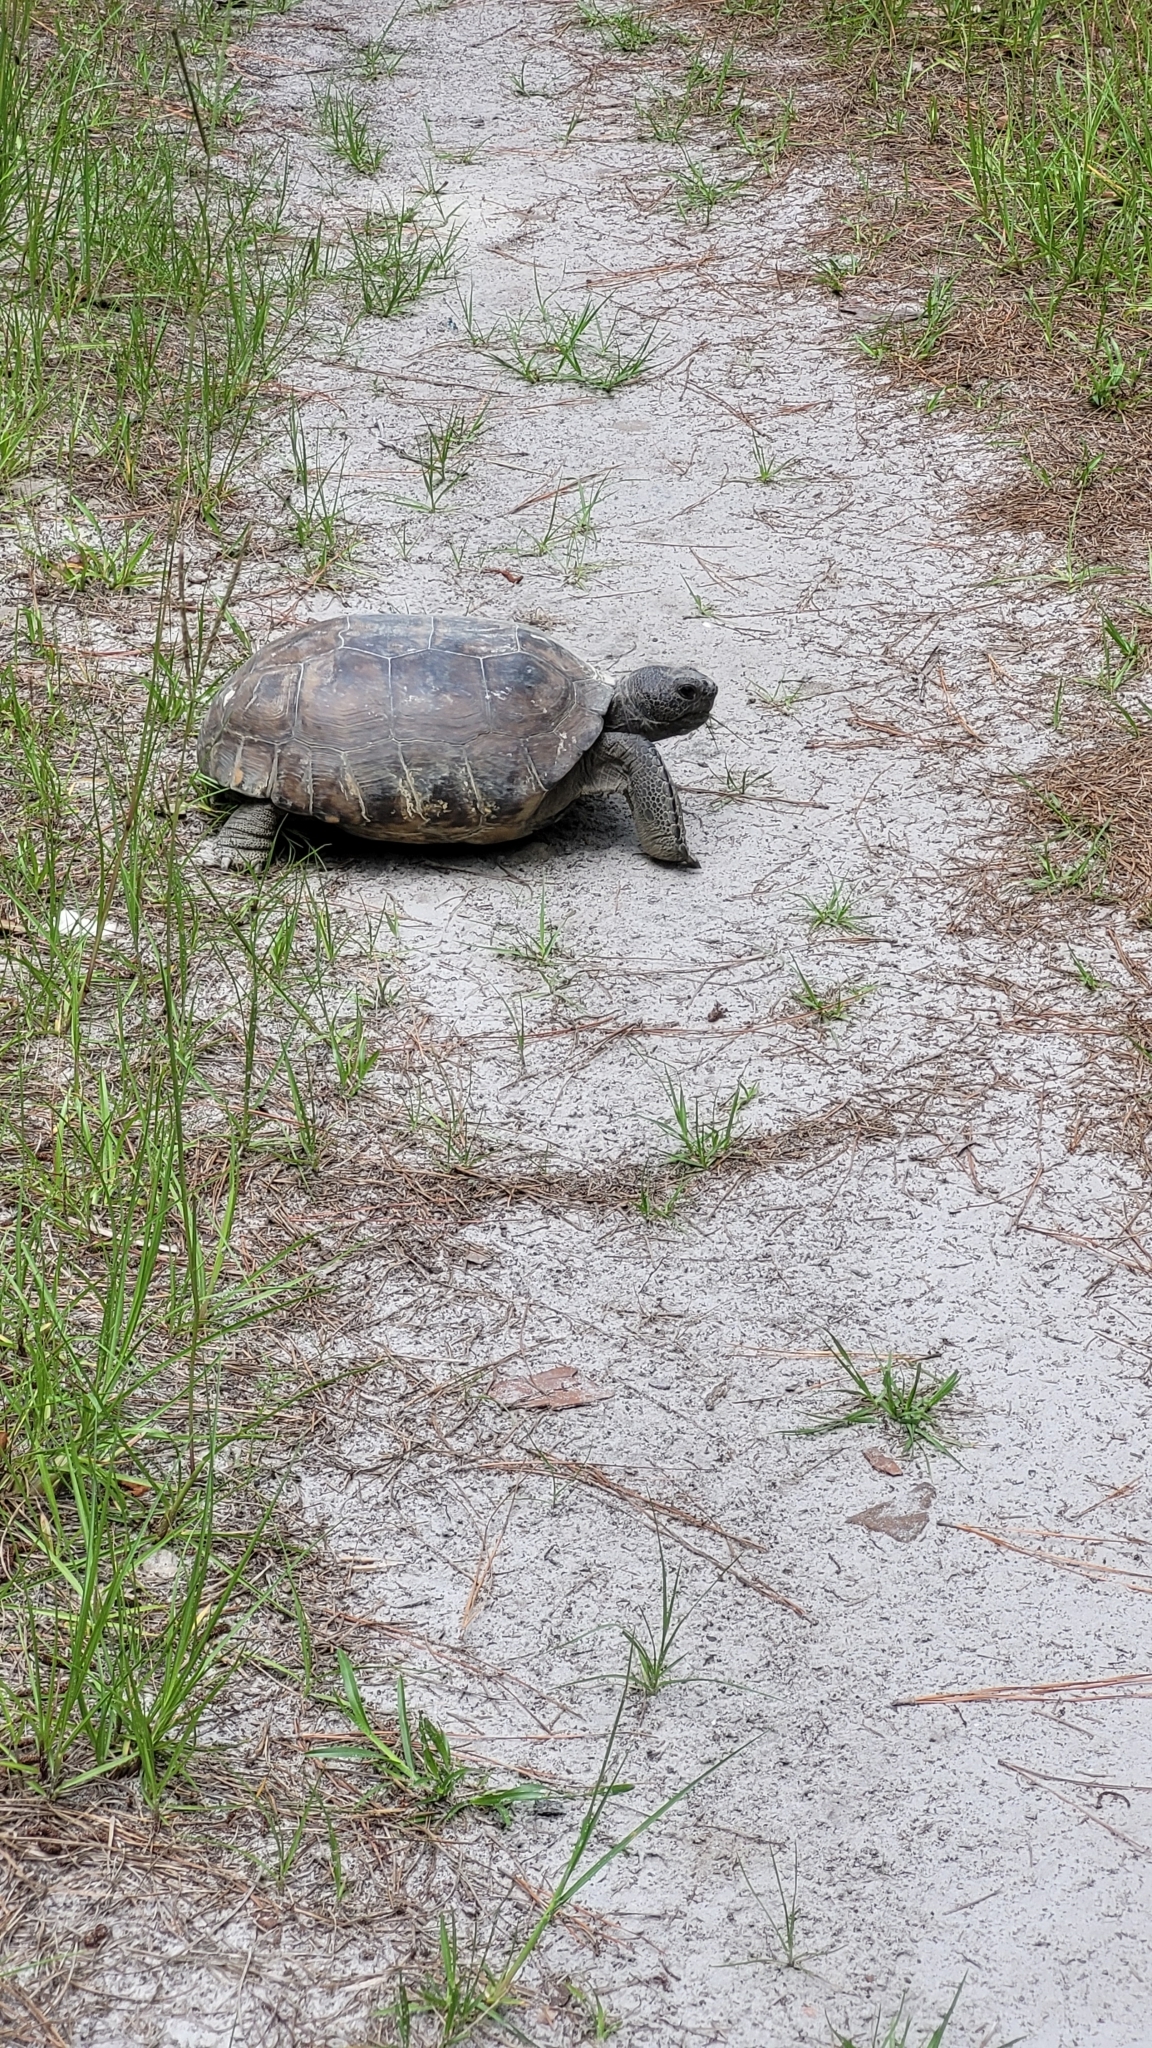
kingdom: Animalia
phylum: Chordata
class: Testudines
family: Testudinidae
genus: Gopherus
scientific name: Gopherus polyphemus
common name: Florida gopher tortoise
